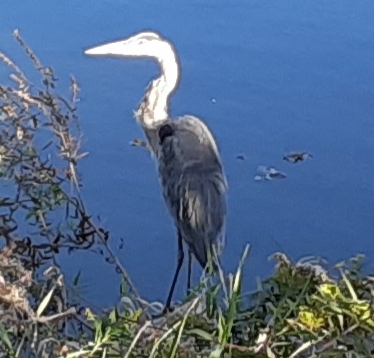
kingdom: Animalia
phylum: Chordata
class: Aves
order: Pelecaniformes
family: Ardeidae
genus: Ardea
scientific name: Ardea herodias
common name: Great blue heron
